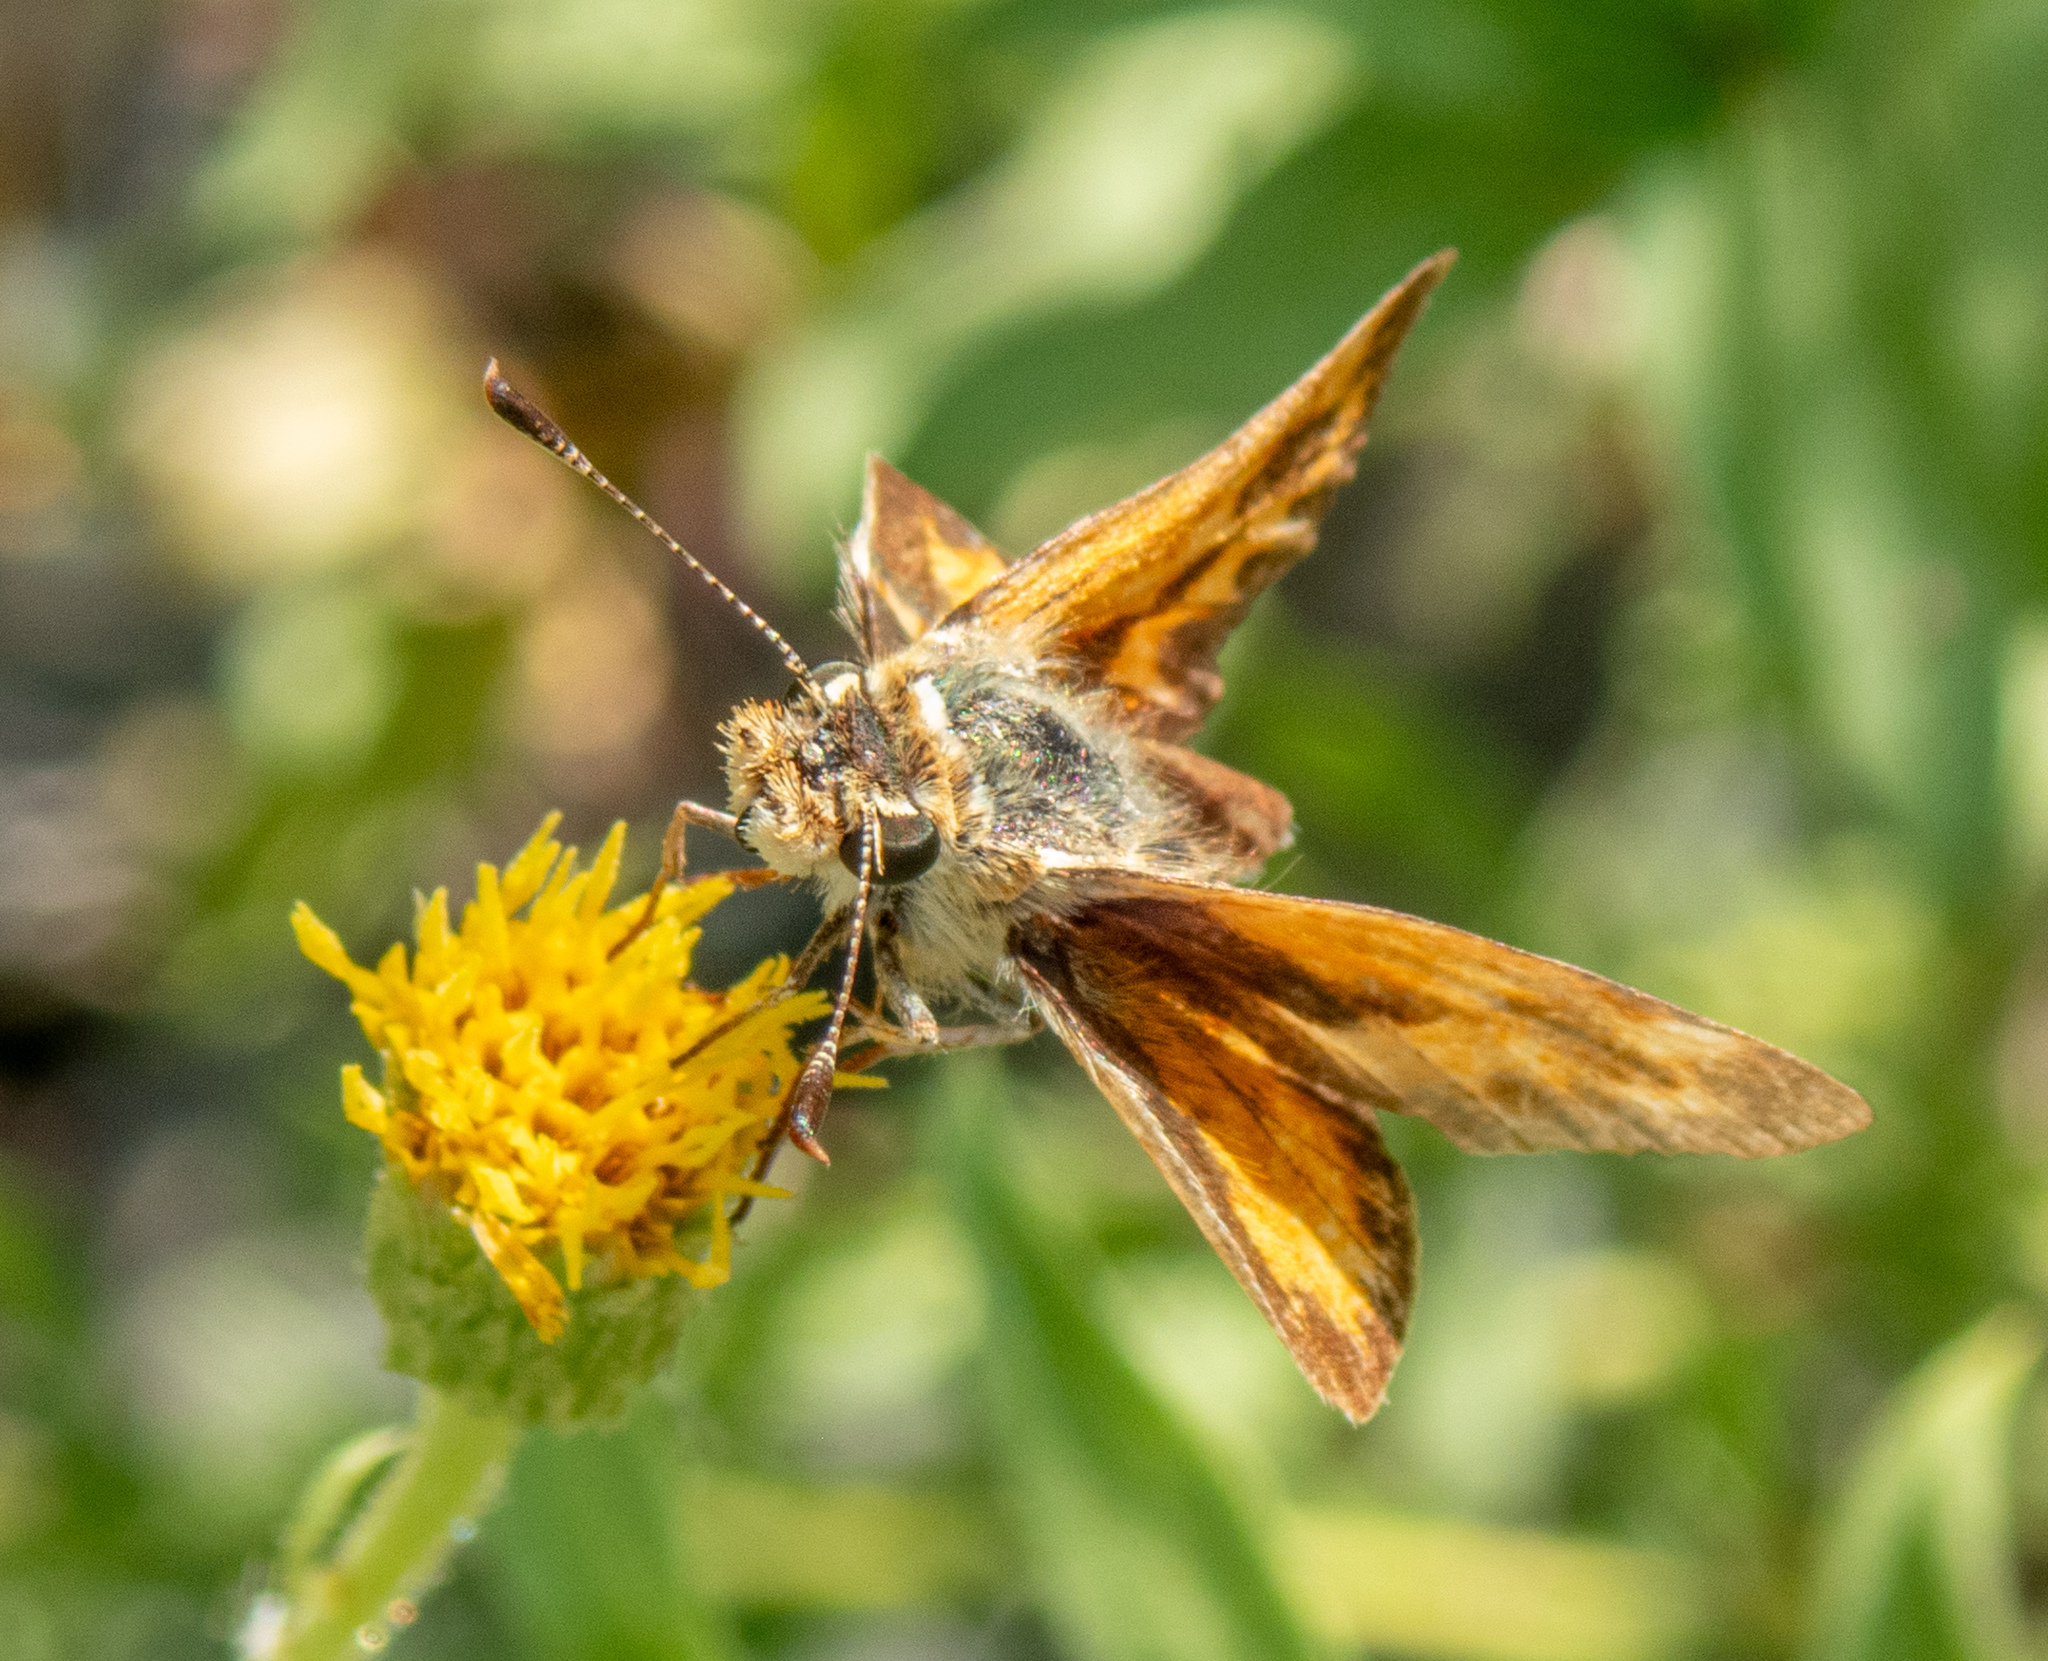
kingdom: Animalia
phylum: Arthropoda
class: Insecta
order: Lepidoptera
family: Hesperiidae
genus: Ochlodes
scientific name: Ochlodes sylvanoides
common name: Woodland skipper
